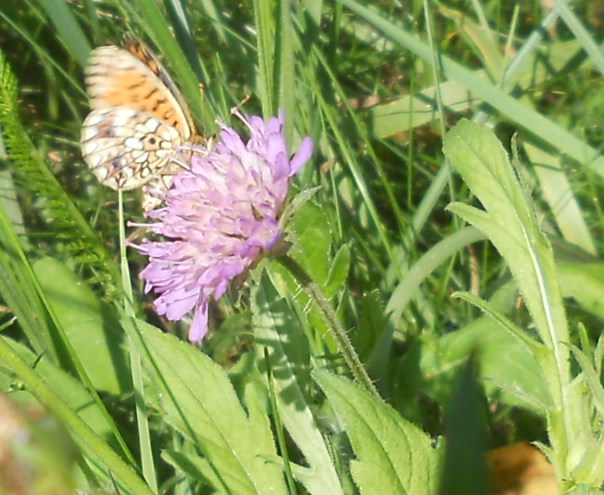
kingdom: Animalia
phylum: Arthropoda
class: Insecta
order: Lepidoptera
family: Nymphalidae
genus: Boloria
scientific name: Boloria selene
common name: Small pearl-bordered fritillary
